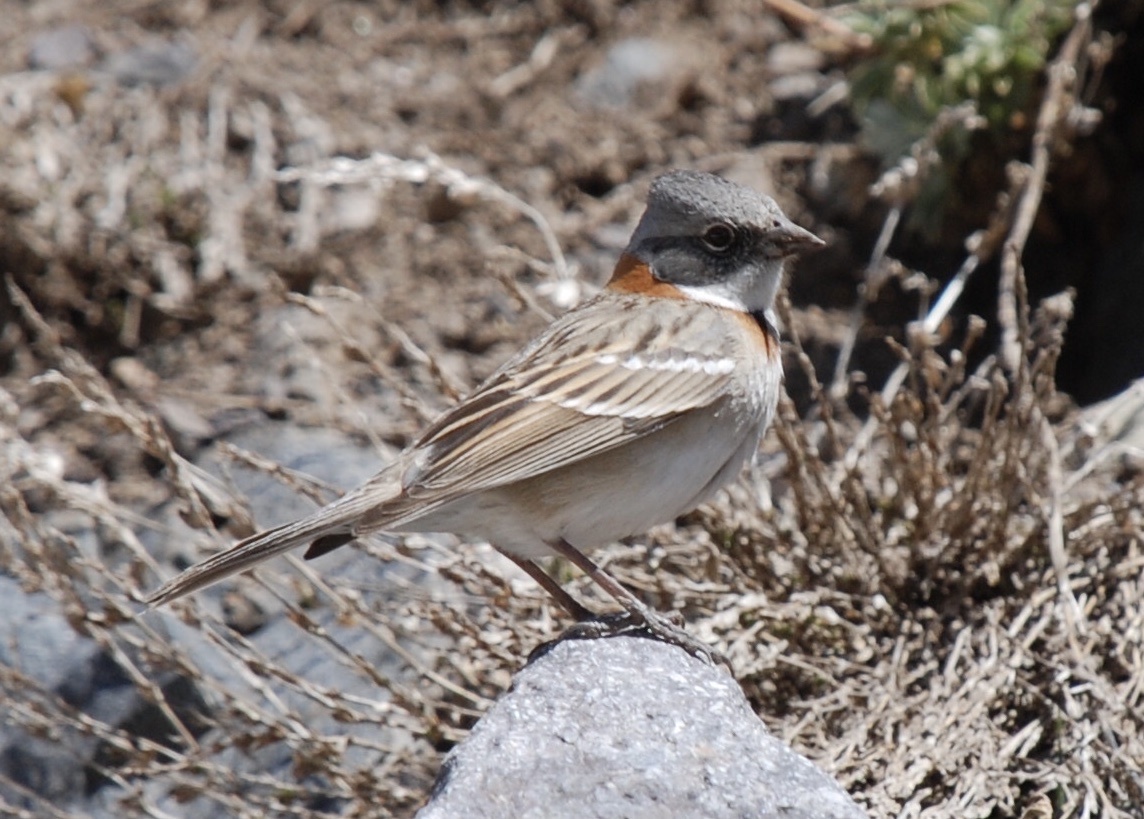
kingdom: Animalia
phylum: Chordata
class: Aves
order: Passeriformes
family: Passerellidae
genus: Zonotrichia
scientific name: Zonotrichia capensis
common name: Rufous-collared sparrow
